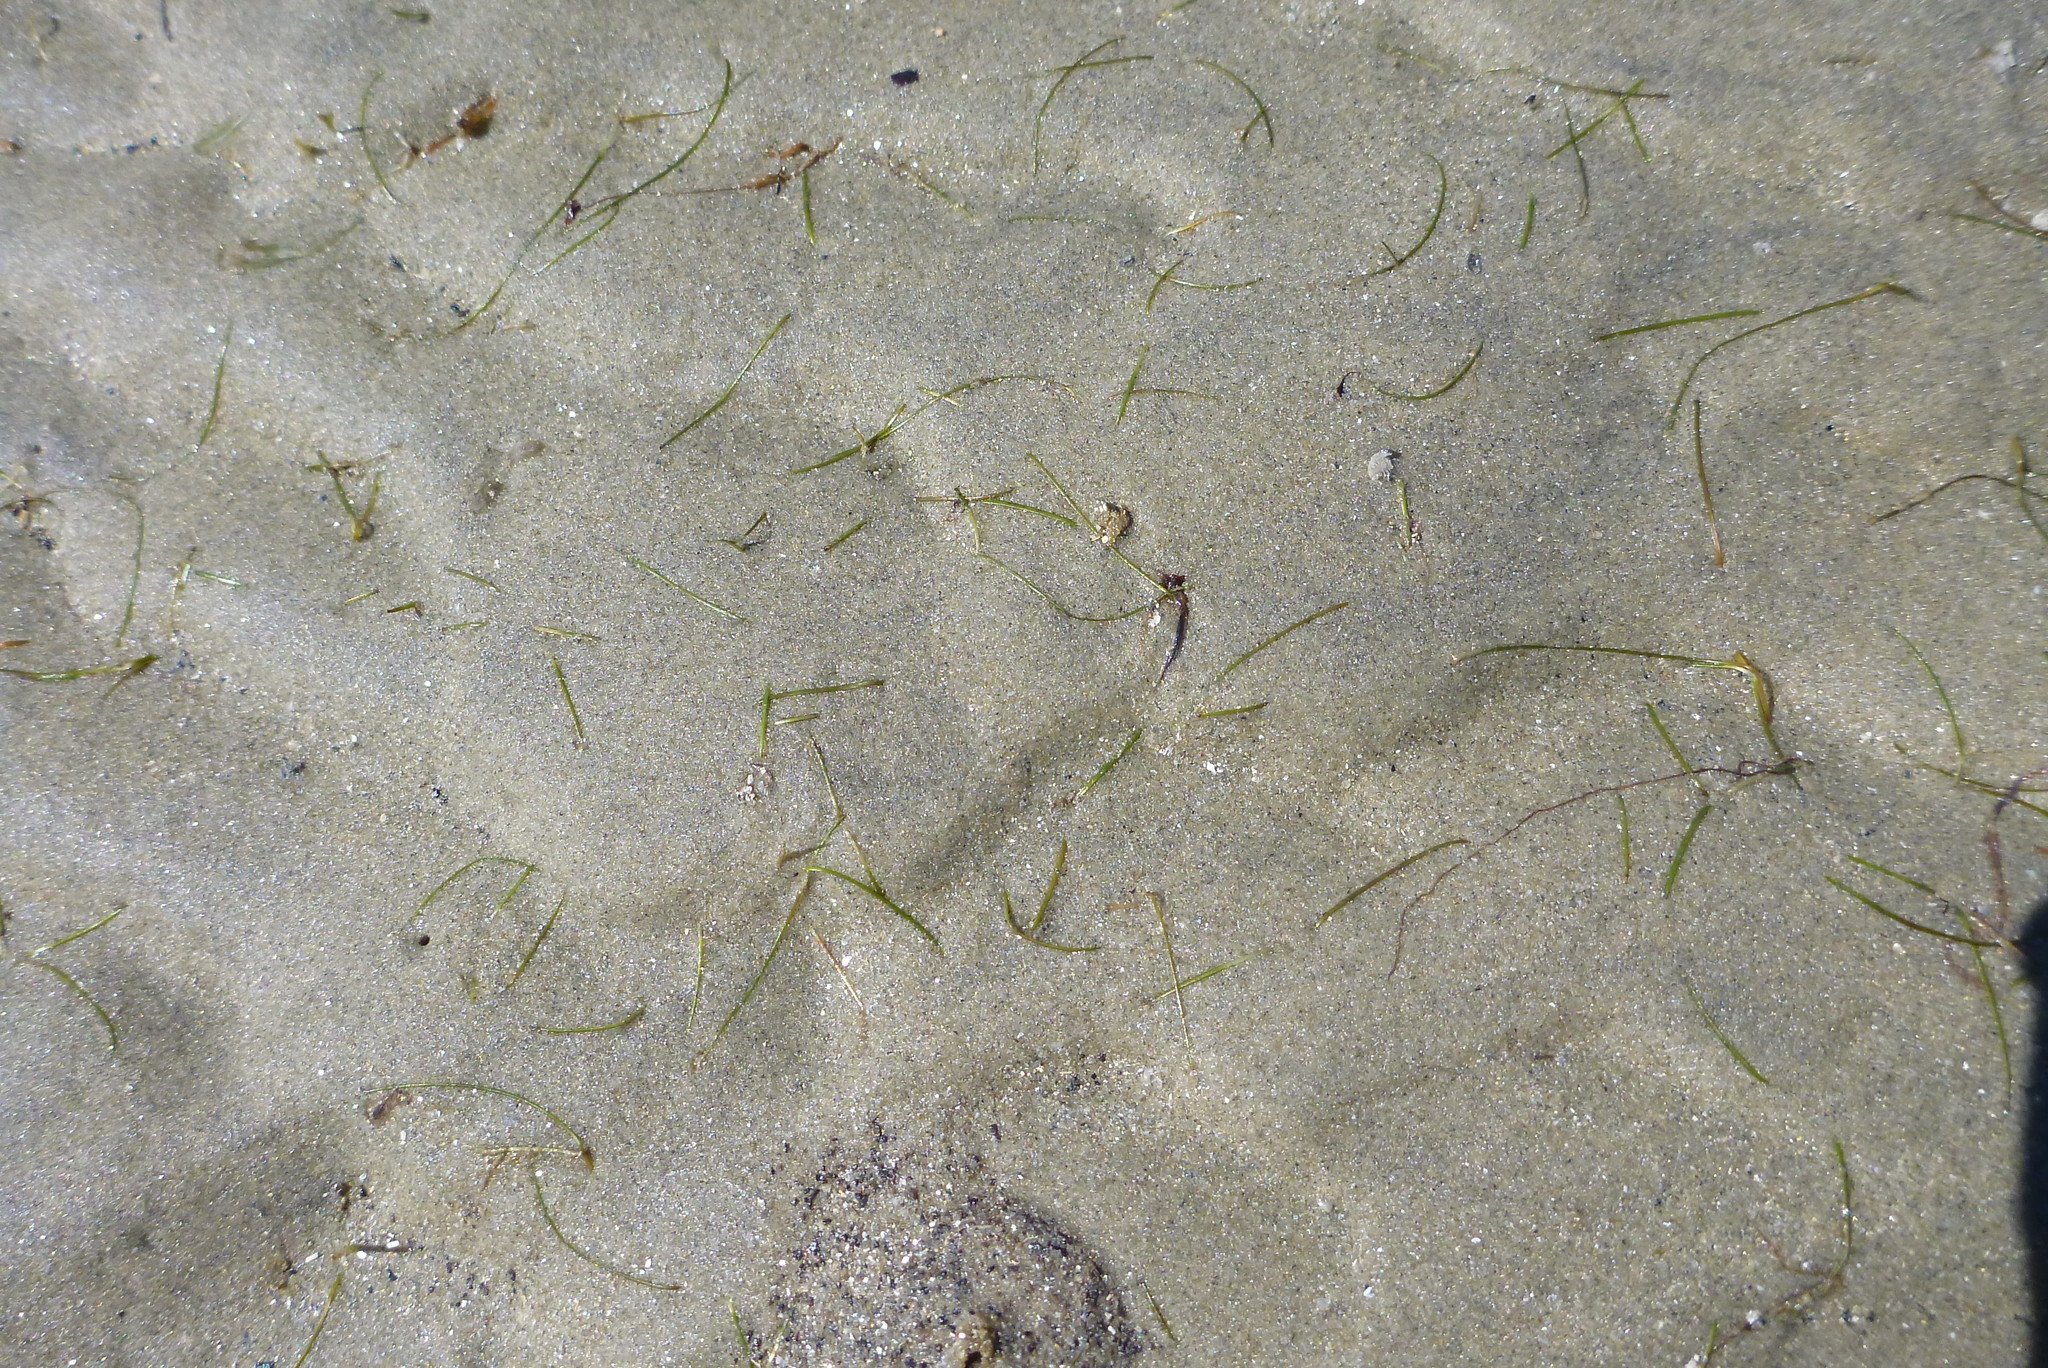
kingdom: Plantae
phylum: Tracheophyta
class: Liliopsida
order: Alismatales
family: Cymodoceaceae
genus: Halodule
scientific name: Halodule uninervis
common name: Narrowleaf seagrass
